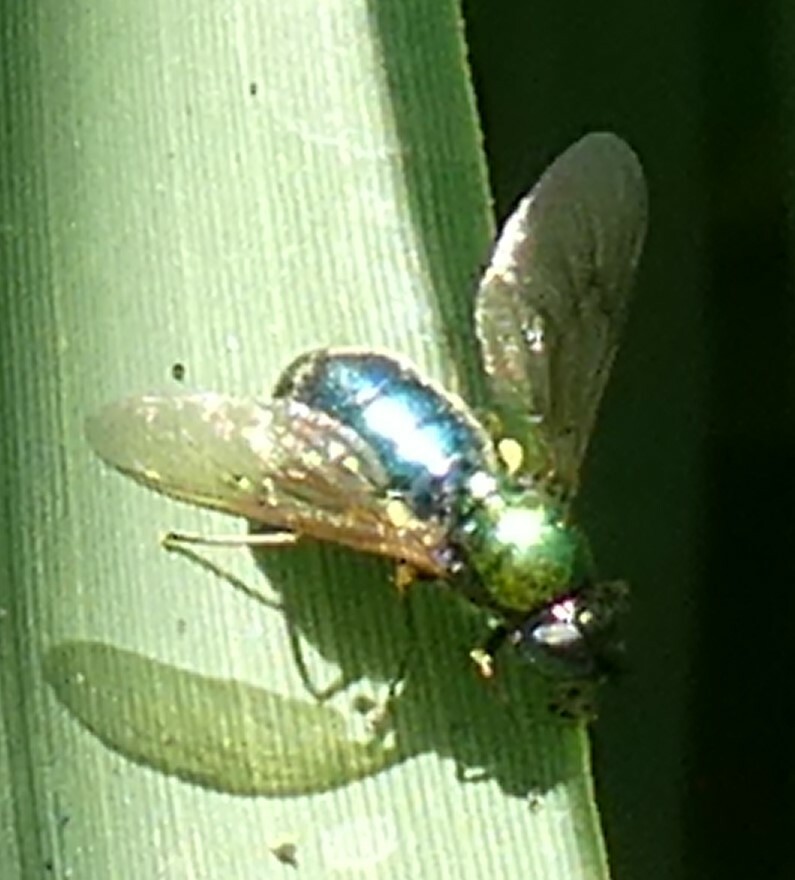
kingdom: Animalia
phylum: Arthropoda
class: Insecta
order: Diptera
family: Stratiomyidae
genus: Chloromyia
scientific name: Chloromyia formosa
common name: Soldier fly
